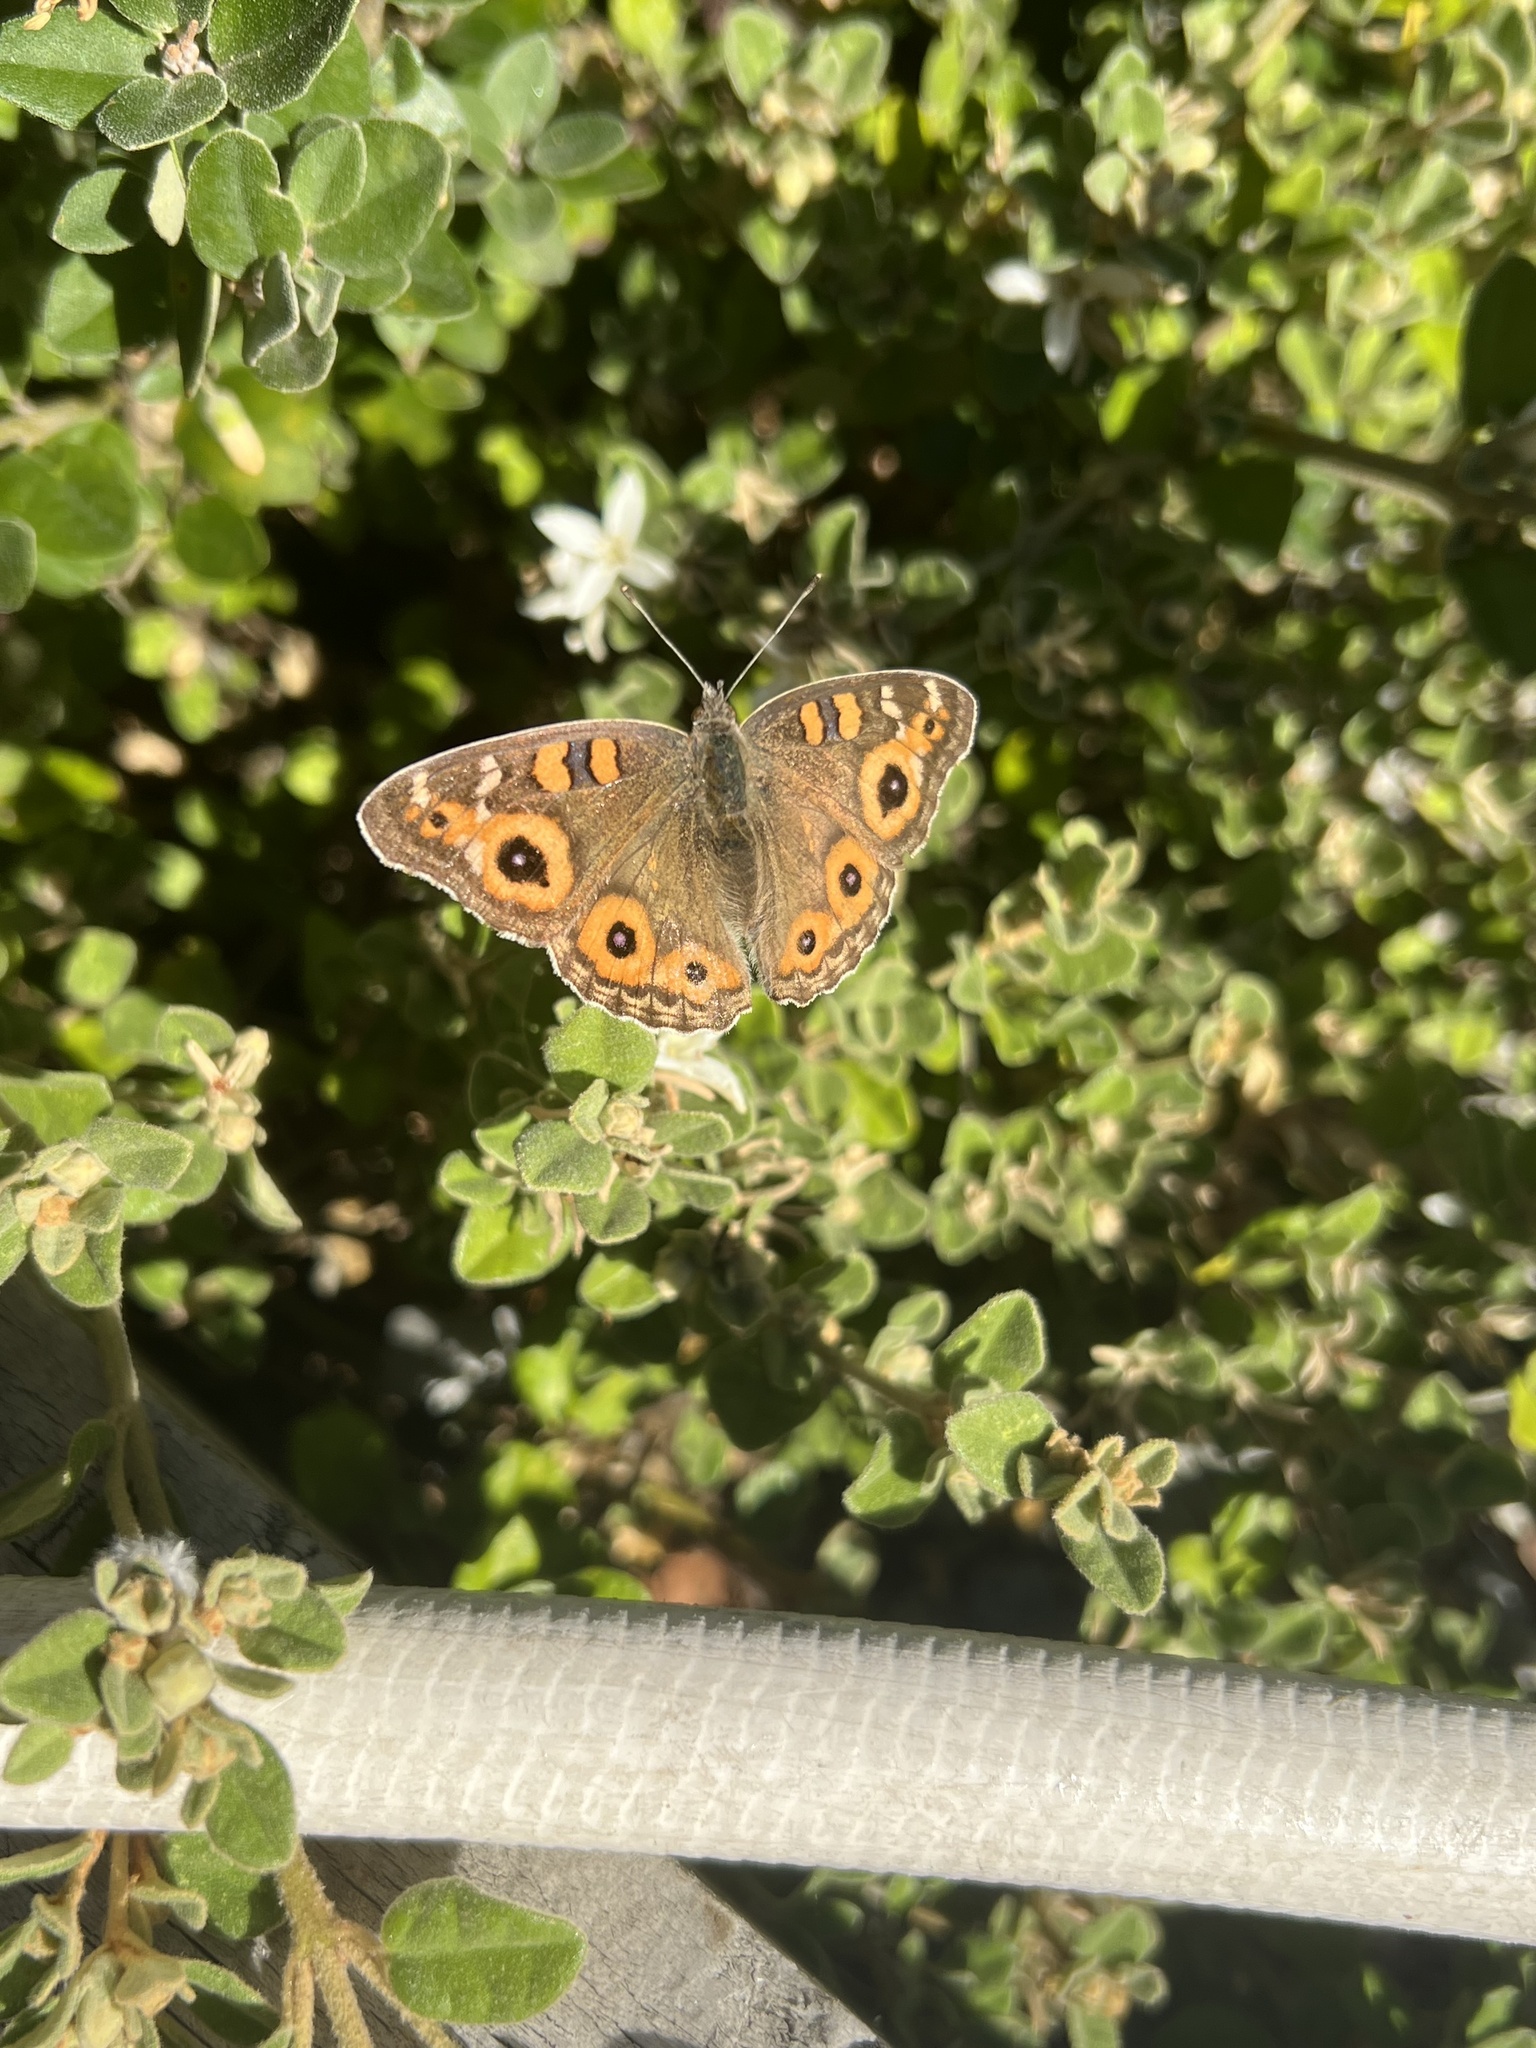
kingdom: Animalia
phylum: Arthropoda
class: Insecta
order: Lepidoptera
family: Nymphalidae
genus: Junonia
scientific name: Junonia villida
